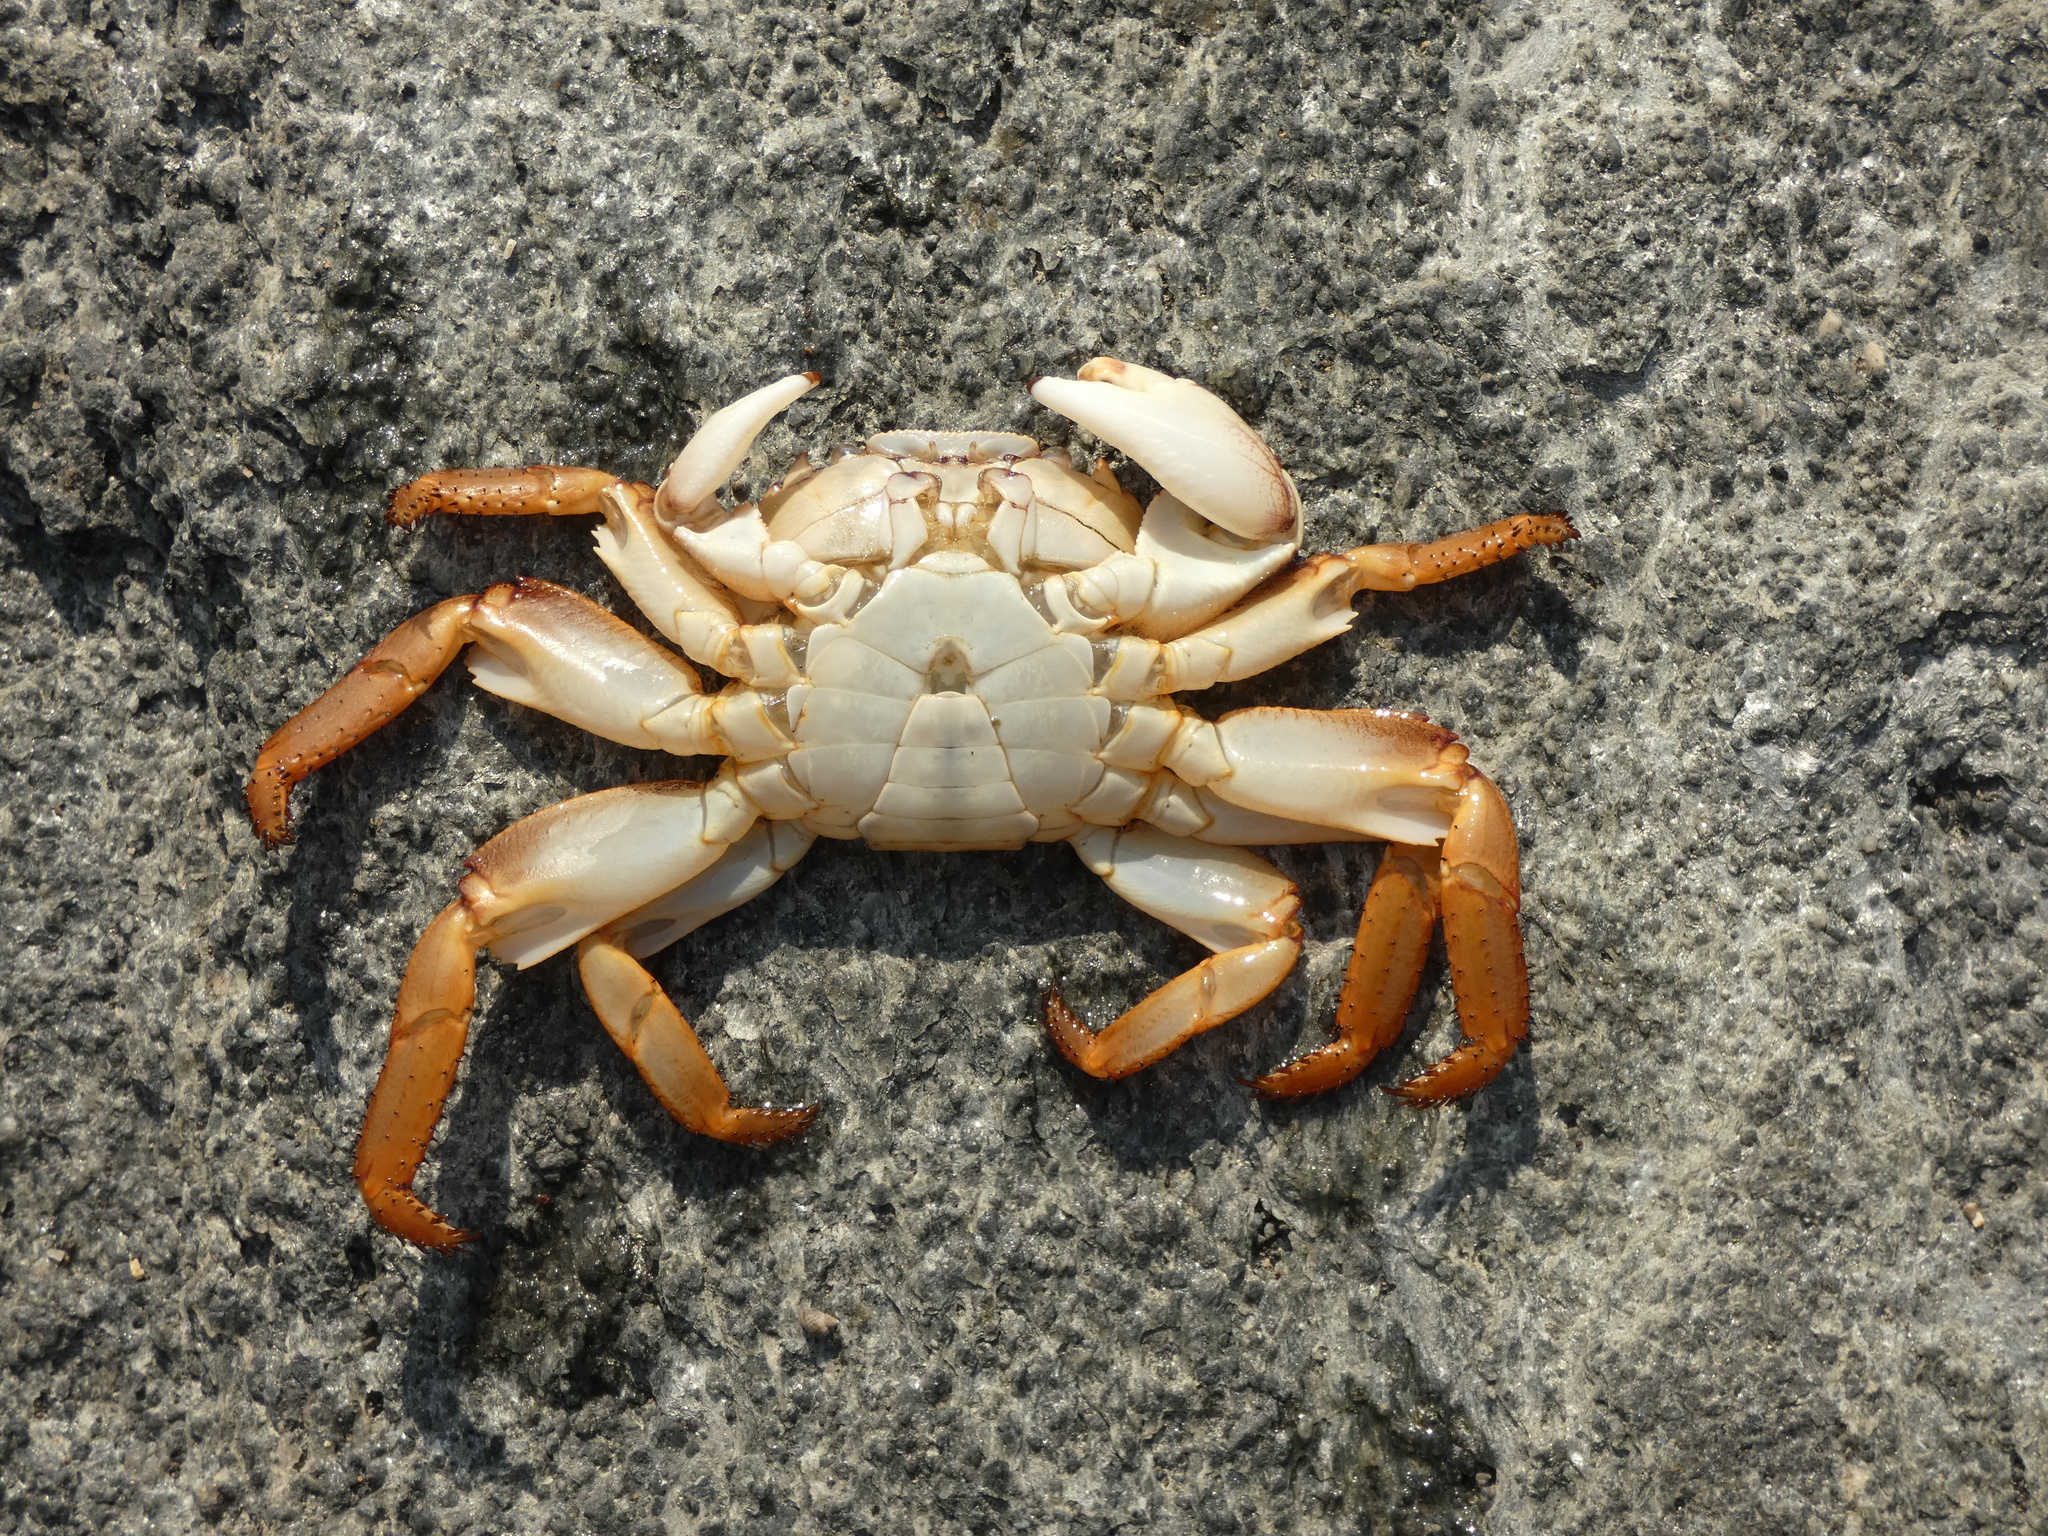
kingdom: Animalia
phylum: Arthropoda
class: Malacostraca
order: Decapoda
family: Grapsidae
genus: Leptograpsus
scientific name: Leptograpsus variegatus
